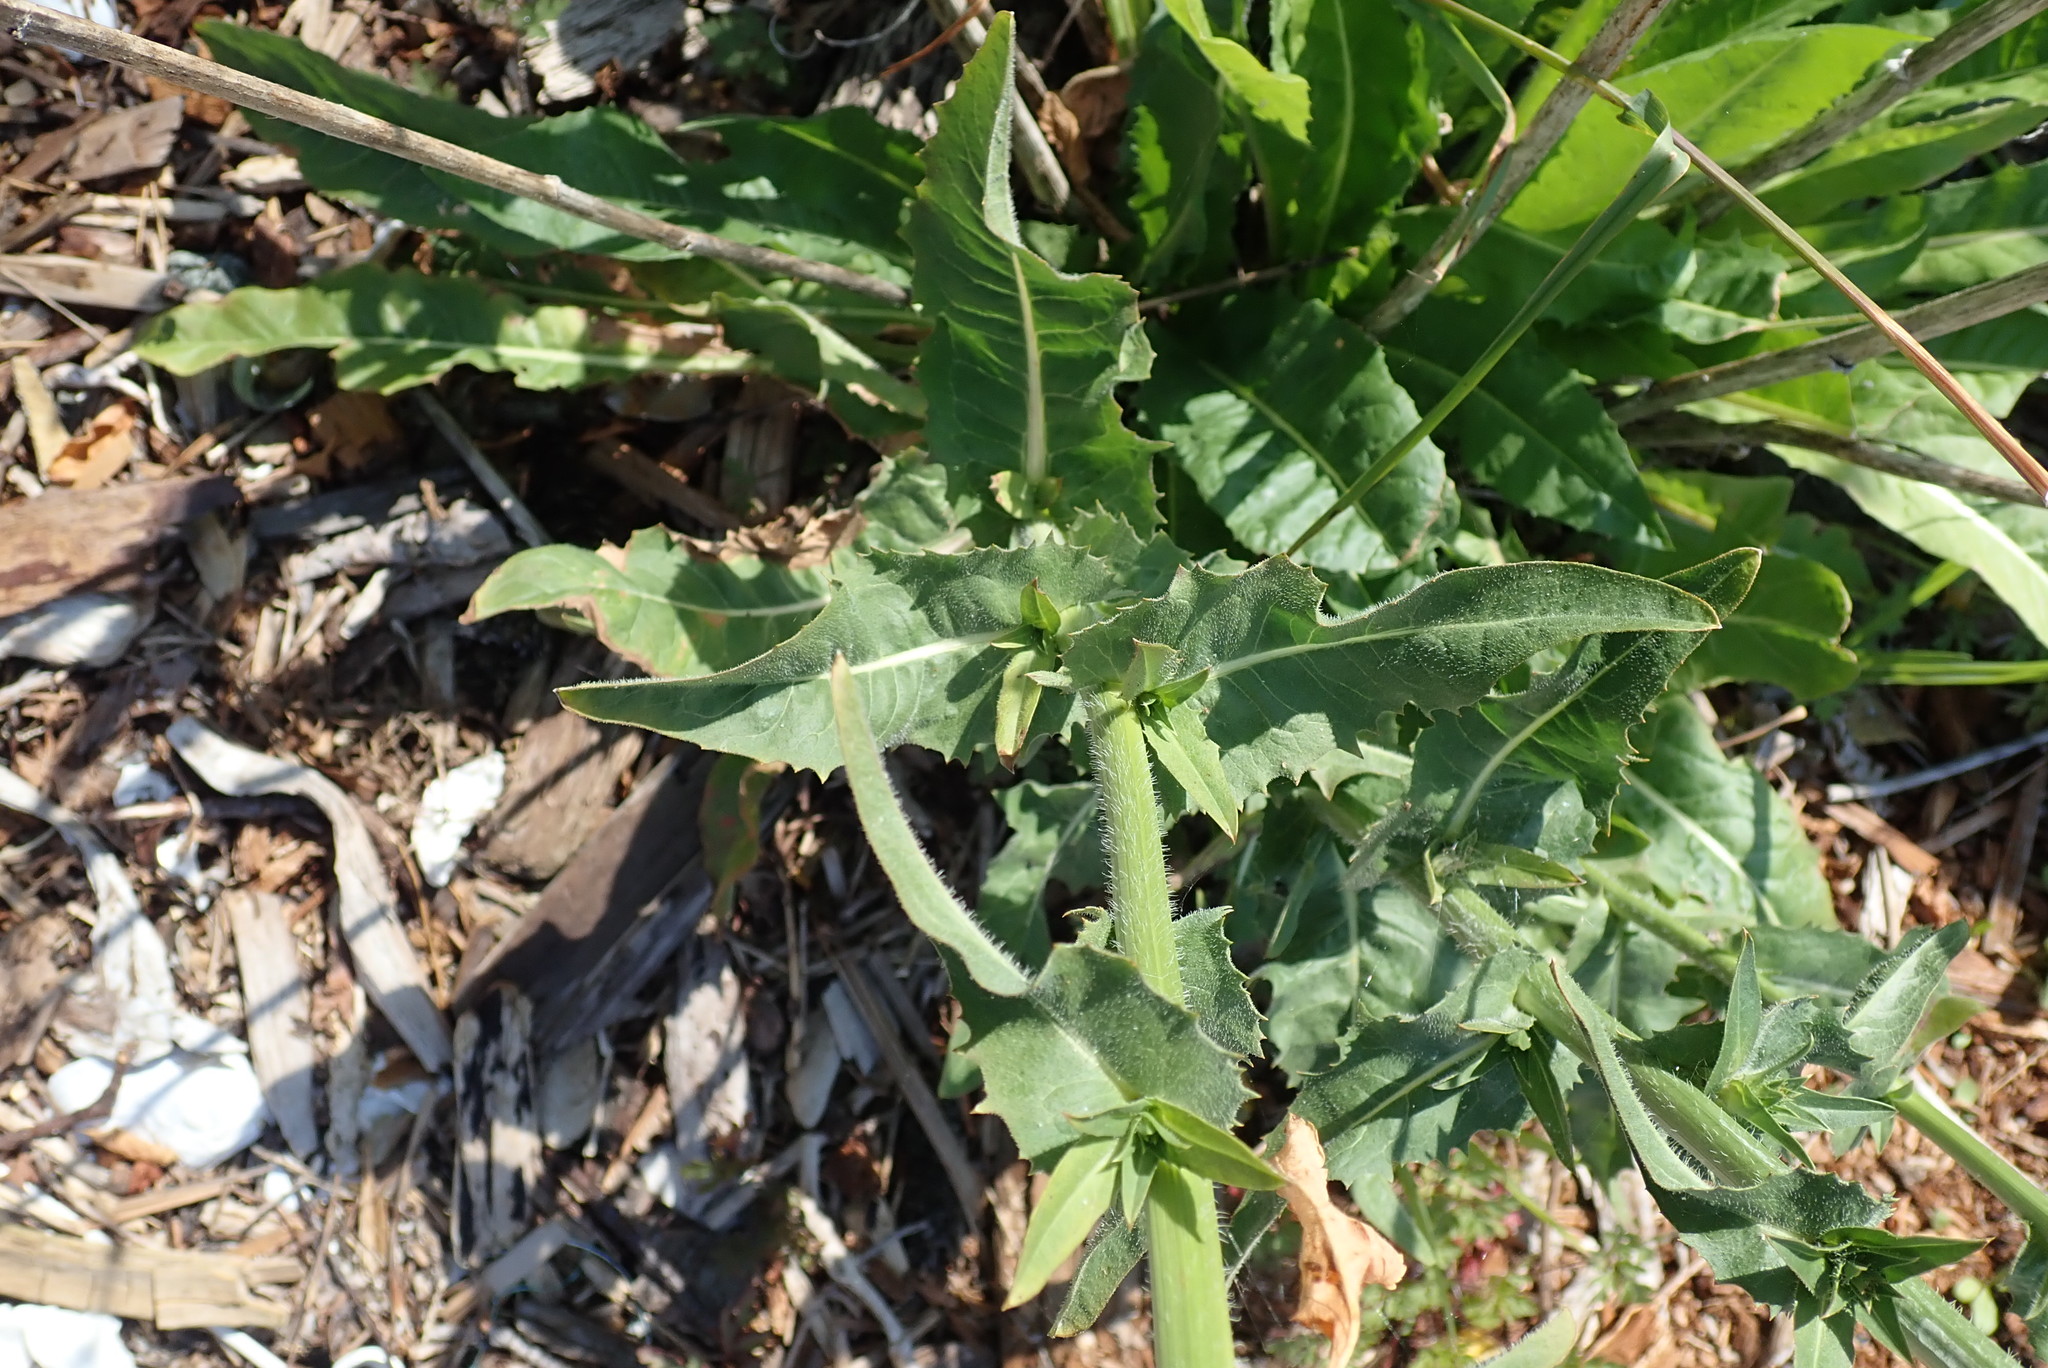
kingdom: Plantae
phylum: Tracheophyta
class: Magnoliopsida
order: Asterales
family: Asteraceae
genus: Cichorium
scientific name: Cichorium intybus
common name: Chicory
